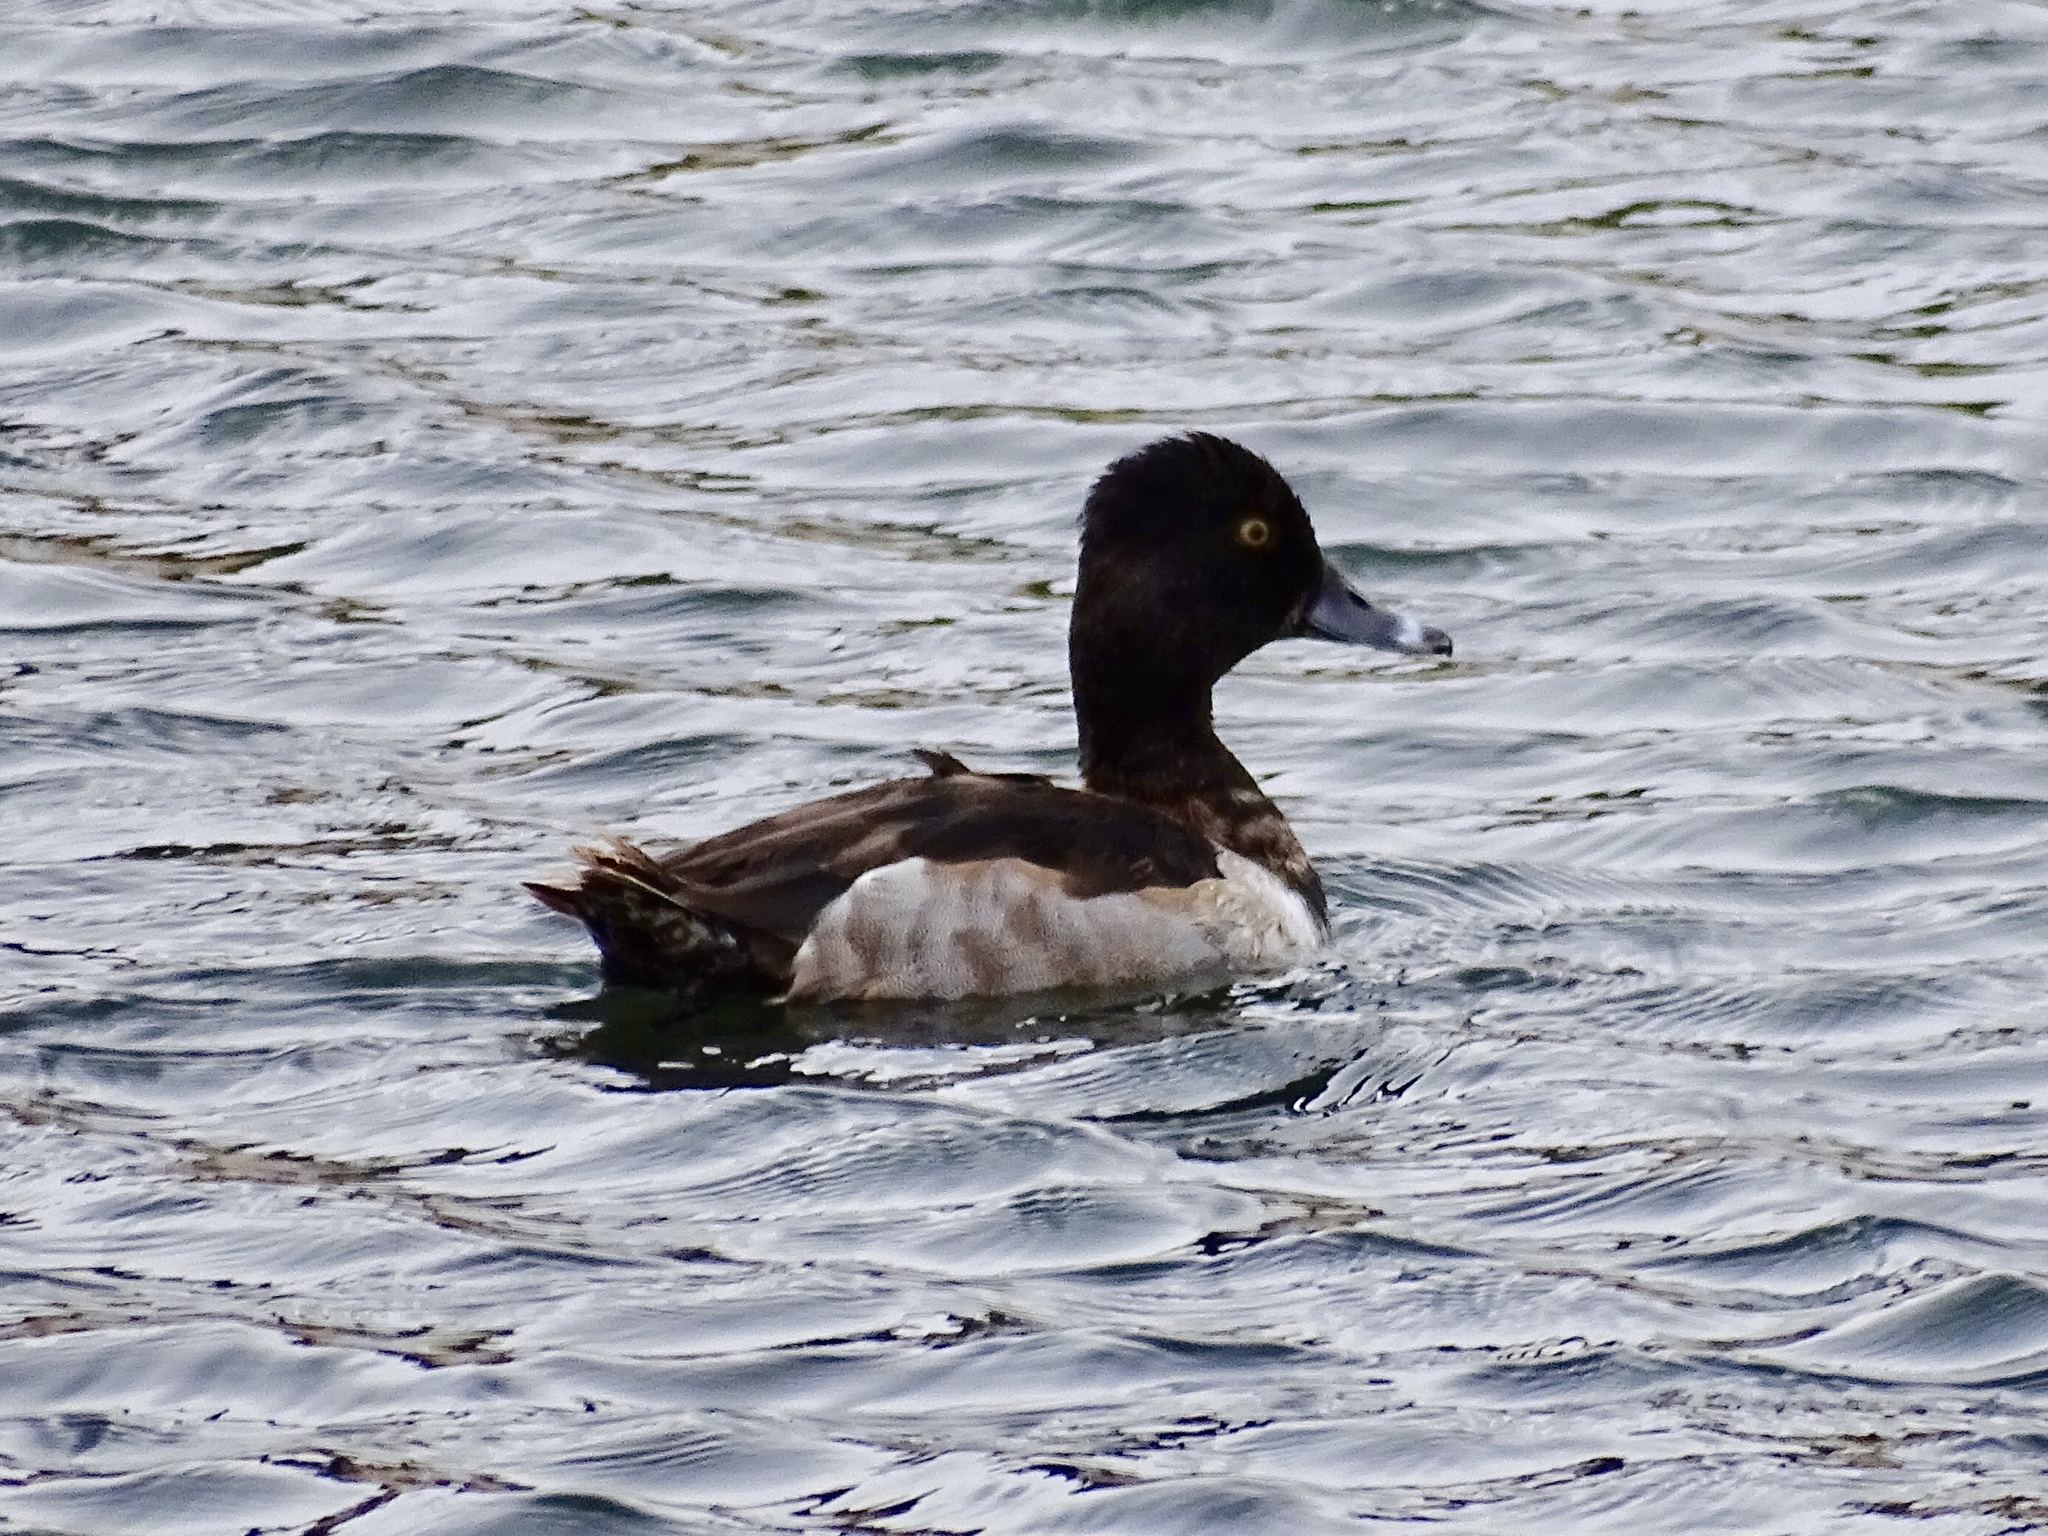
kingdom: Animalia
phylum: Chordata
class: Aves
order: Anseriformes
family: Anatidae
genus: Aythya
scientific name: Aythya collaris
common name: Ring-necked duck
